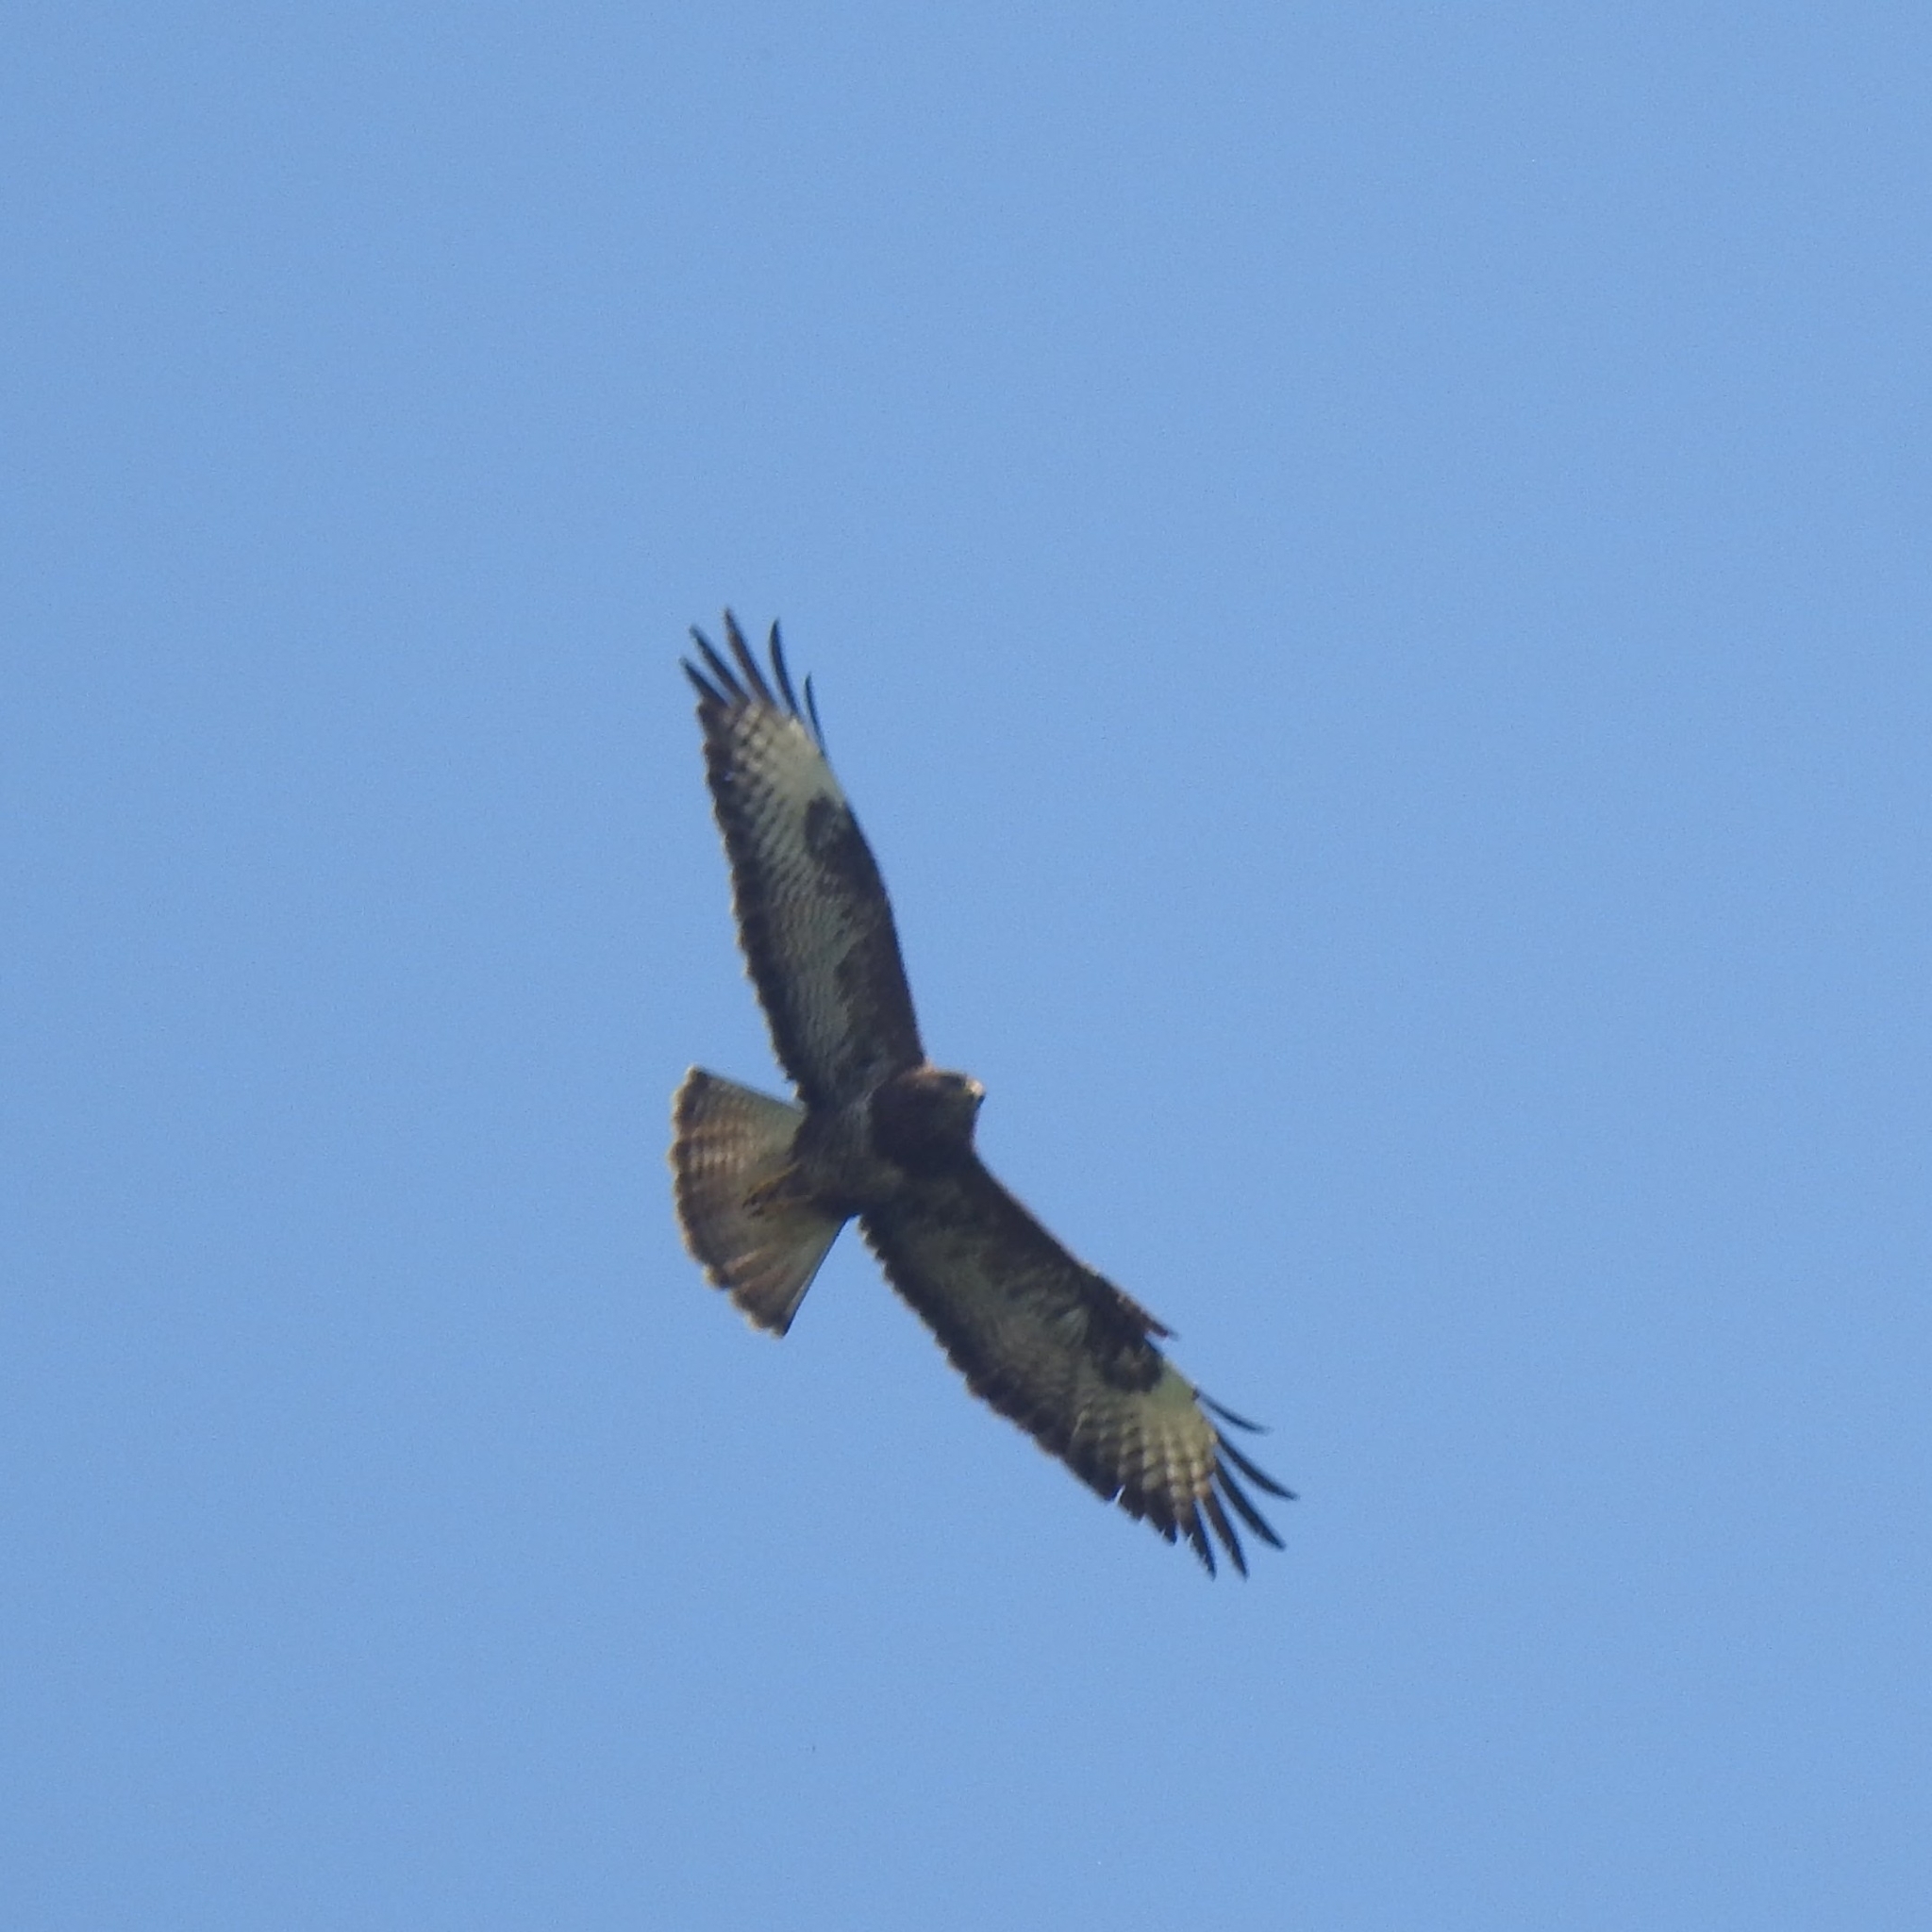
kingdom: Animalia
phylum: Chordata
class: Aves
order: Accipitriformes
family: Accipitridae
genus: Buteo
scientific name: Buteo buteo
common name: Common buzzard
